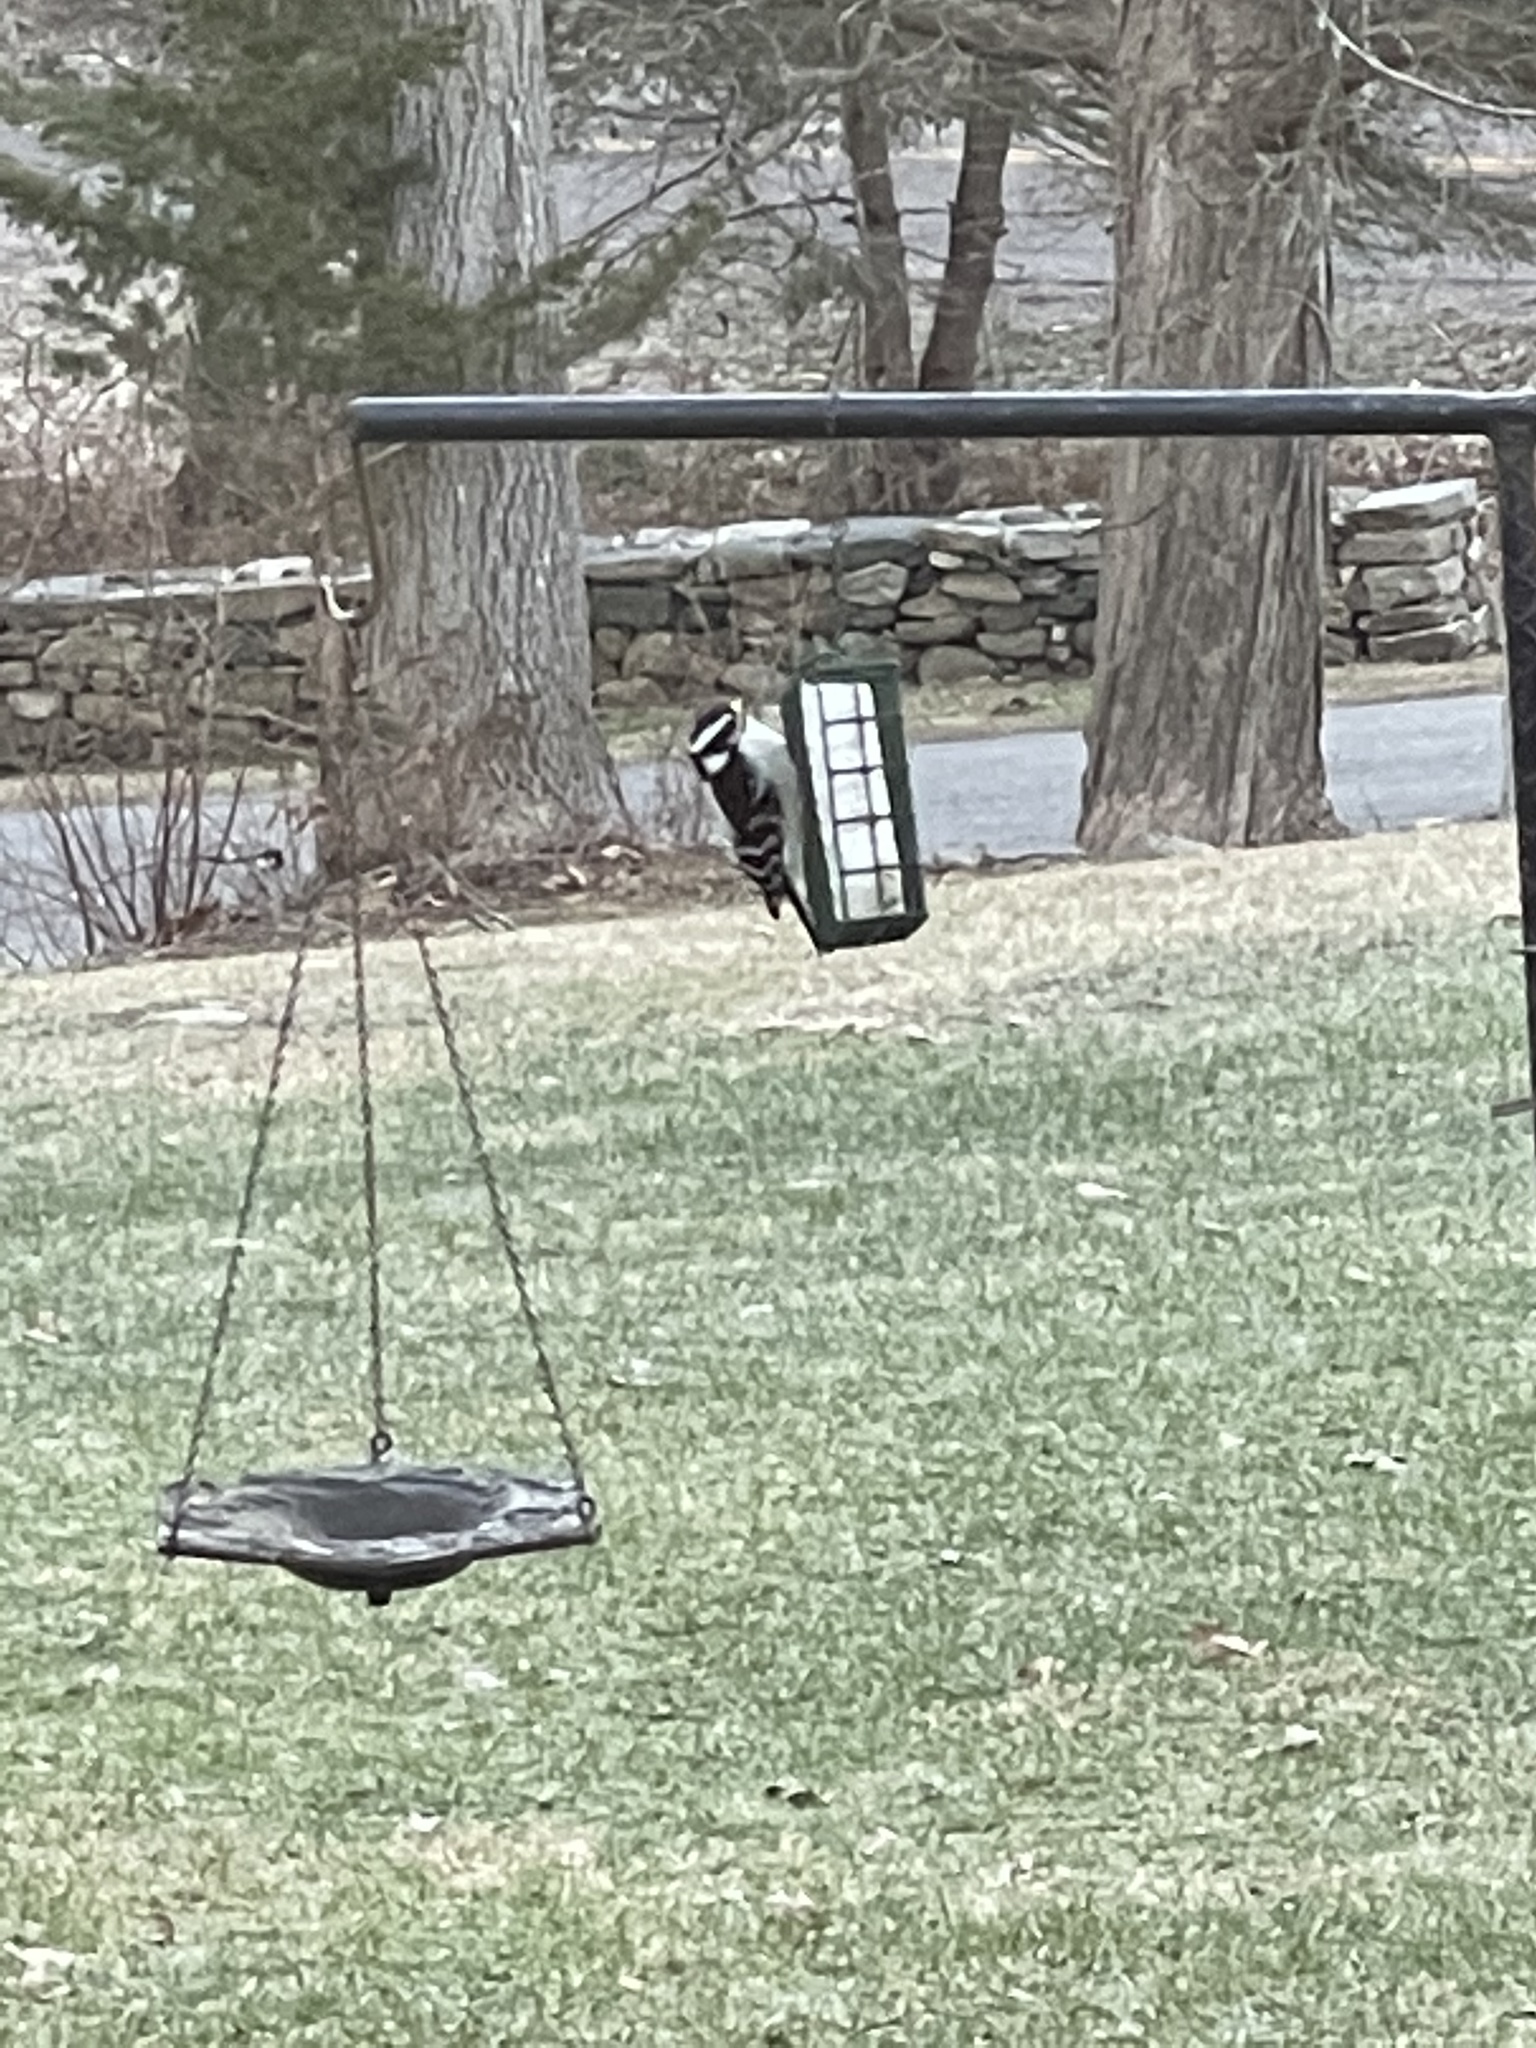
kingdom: Animalia
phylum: Chordata
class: Aves
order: Piciformes
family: Picidae
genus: Dryobates
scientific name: Dryobates pubescens
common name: Downy woodpecker
